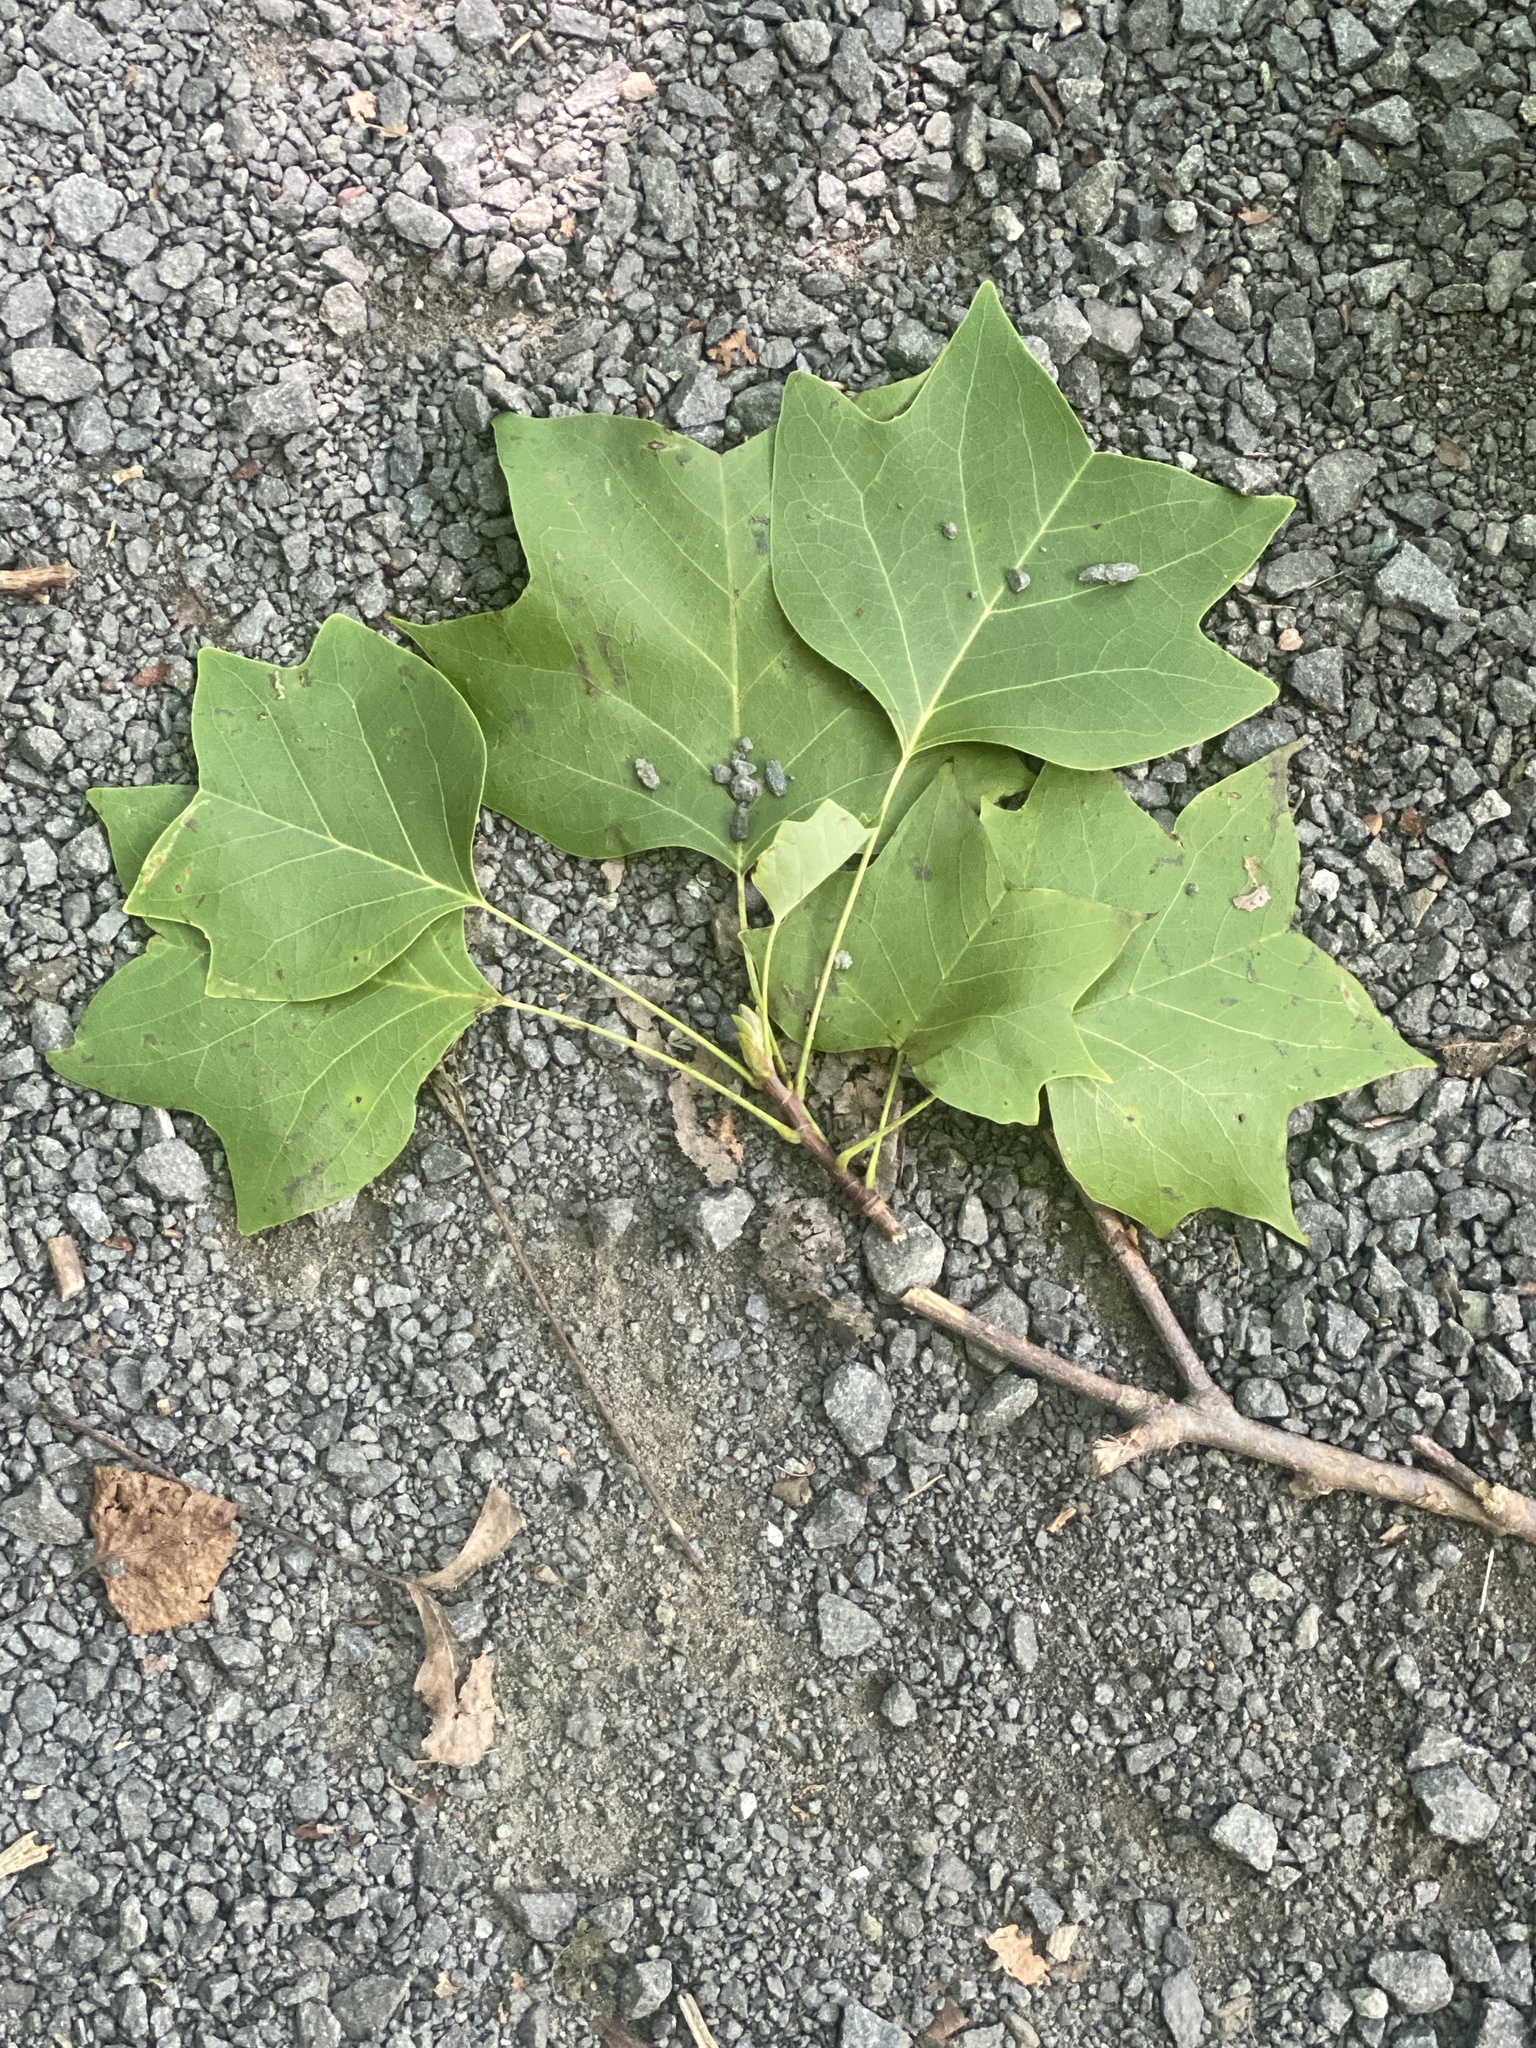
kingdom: Plantae
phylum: Tracheophyta
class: Magnoliopsida
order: Magnoliales
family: Magnoliaceae
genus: Liriodendron
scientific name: Liriodendron tulipifera
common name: Tulip tree
